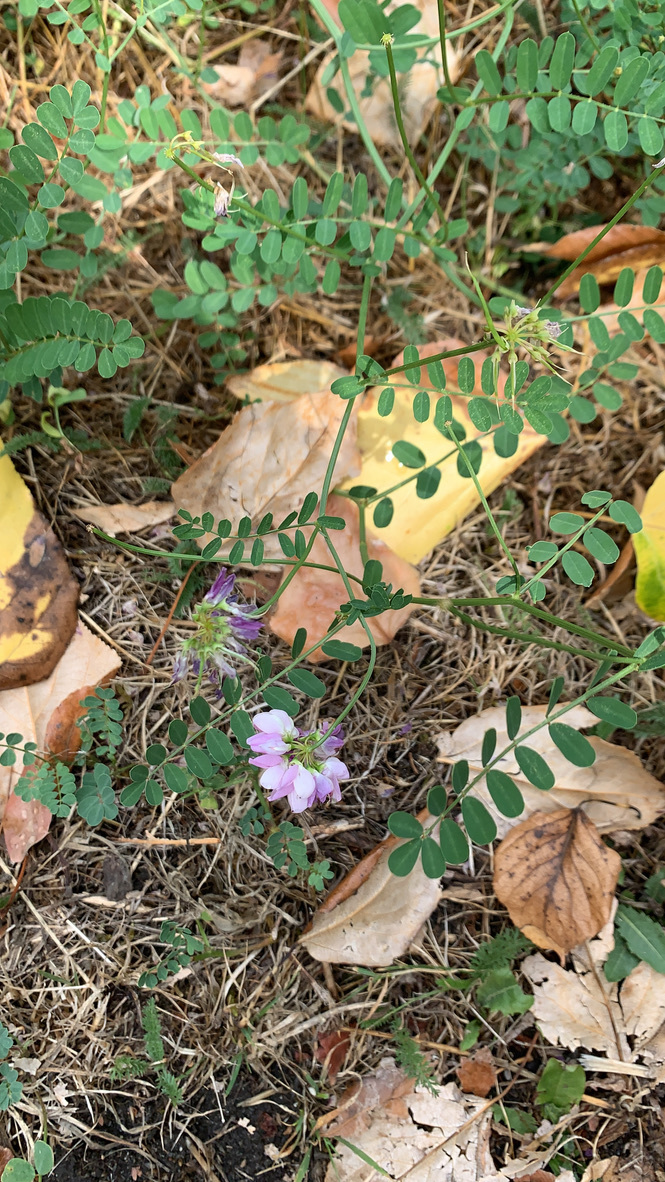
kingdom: Plantae
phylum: Tracheophyta
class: Magnoliopsida
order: Fabales
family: Fabaceae
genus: Coronilla
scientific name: Coronilla varia
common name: Crownvetch
